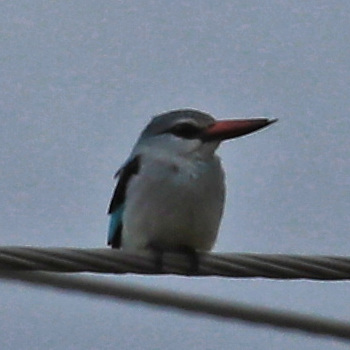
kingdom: Animalia
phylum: Chordata
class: Aves
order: Coraciiformes
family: Alcedinidae
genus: Halcyon
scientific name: Halcyon senegalensis
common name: Woodland kingfisher
